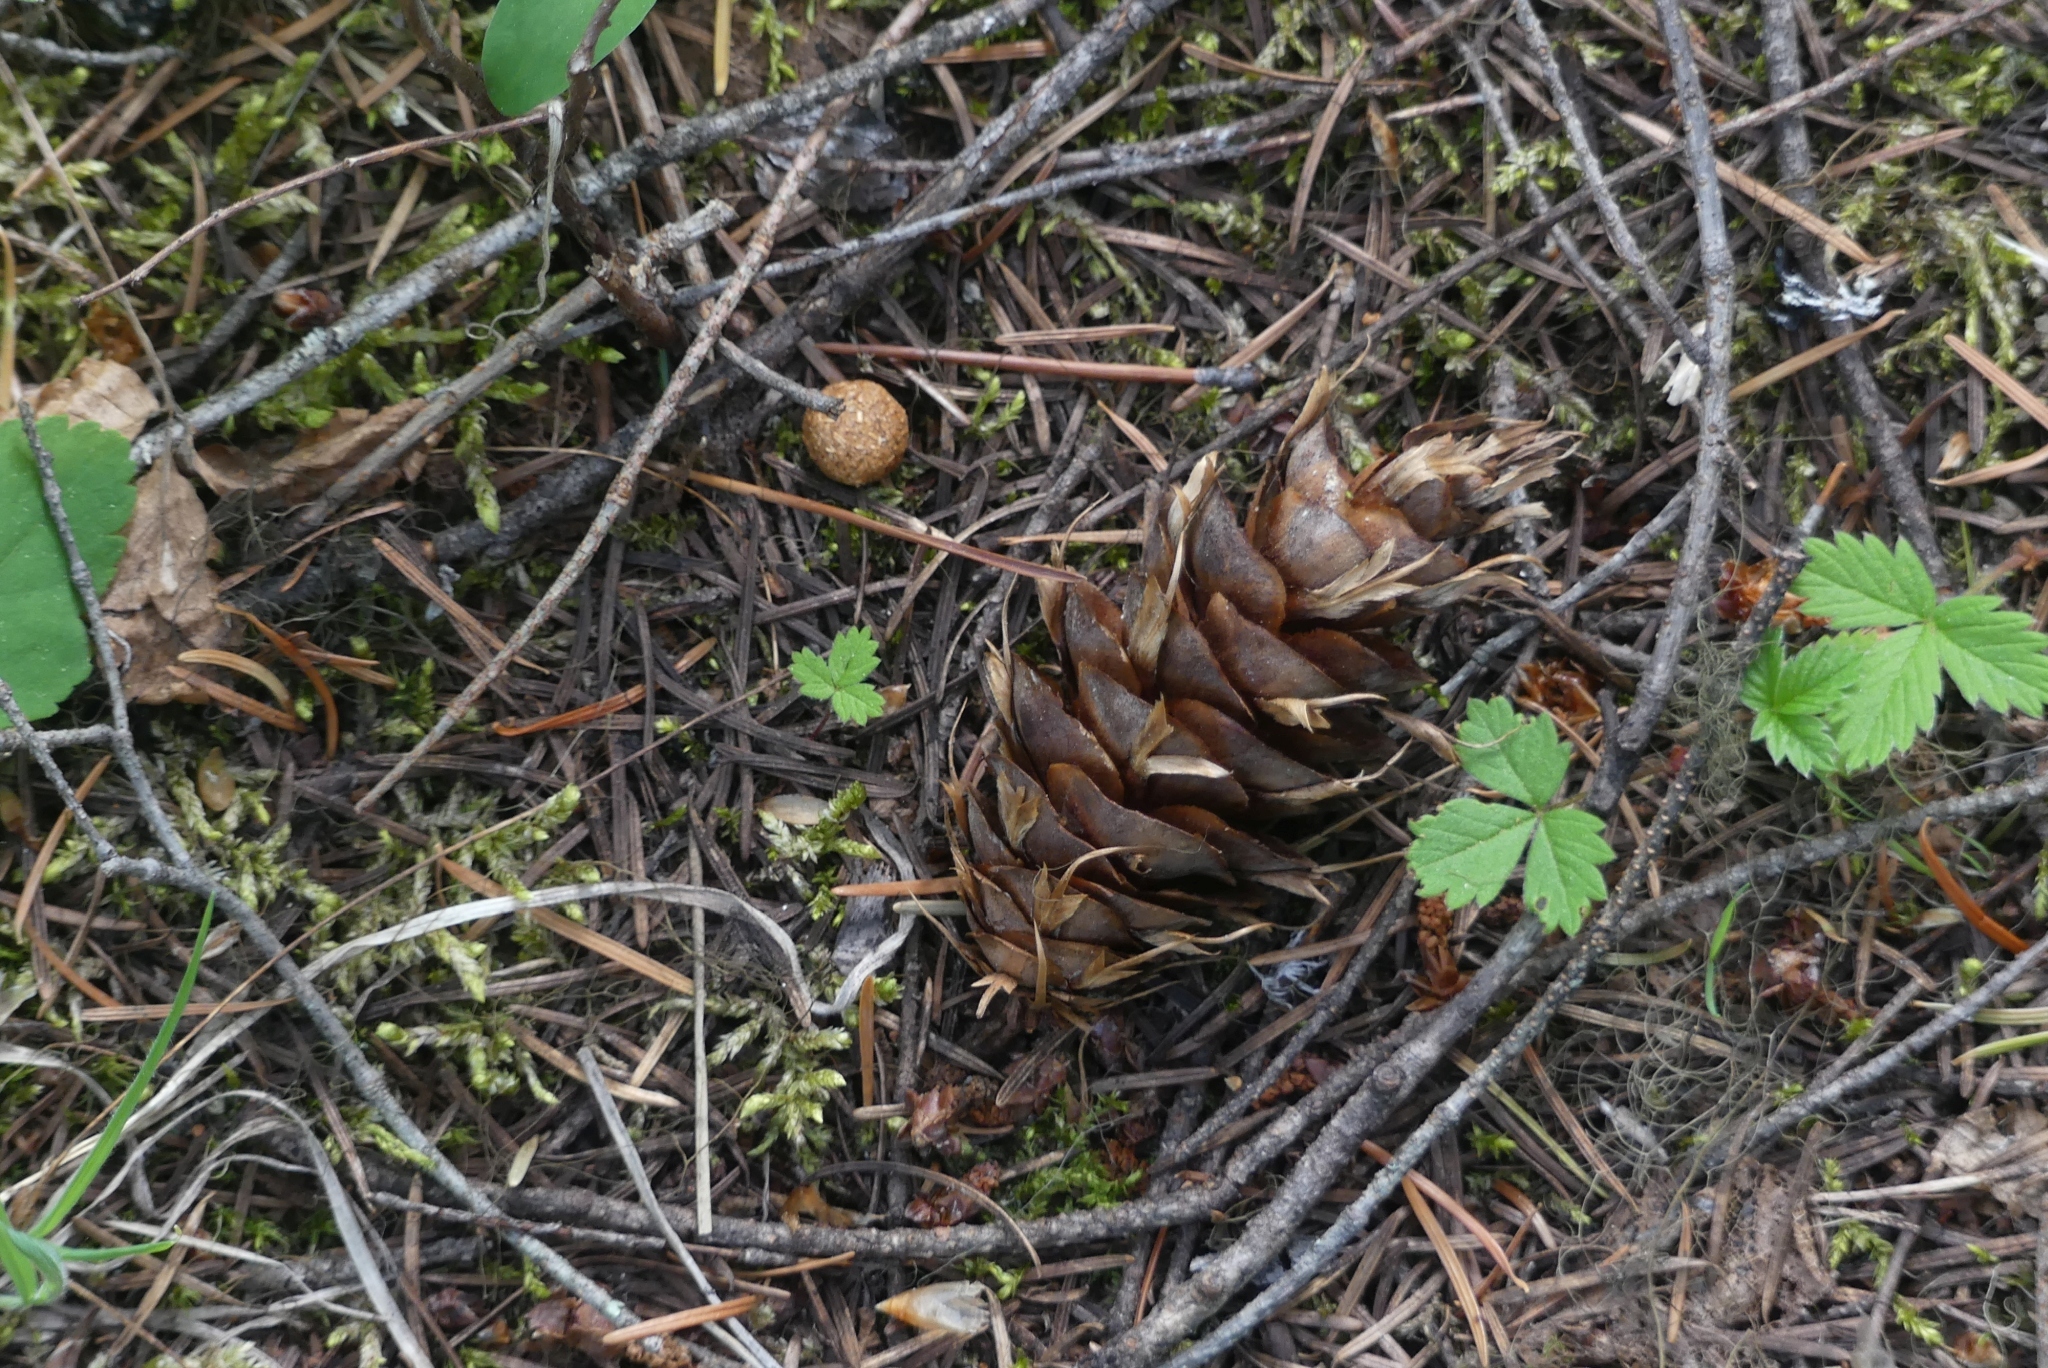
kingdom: Plantae
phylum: Tracheophyta
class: Pinopsida
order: Pinales
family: Pinaceae
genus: Pseudotsuga
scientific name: Pseudotsuga menziesii
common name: Douglas fir
